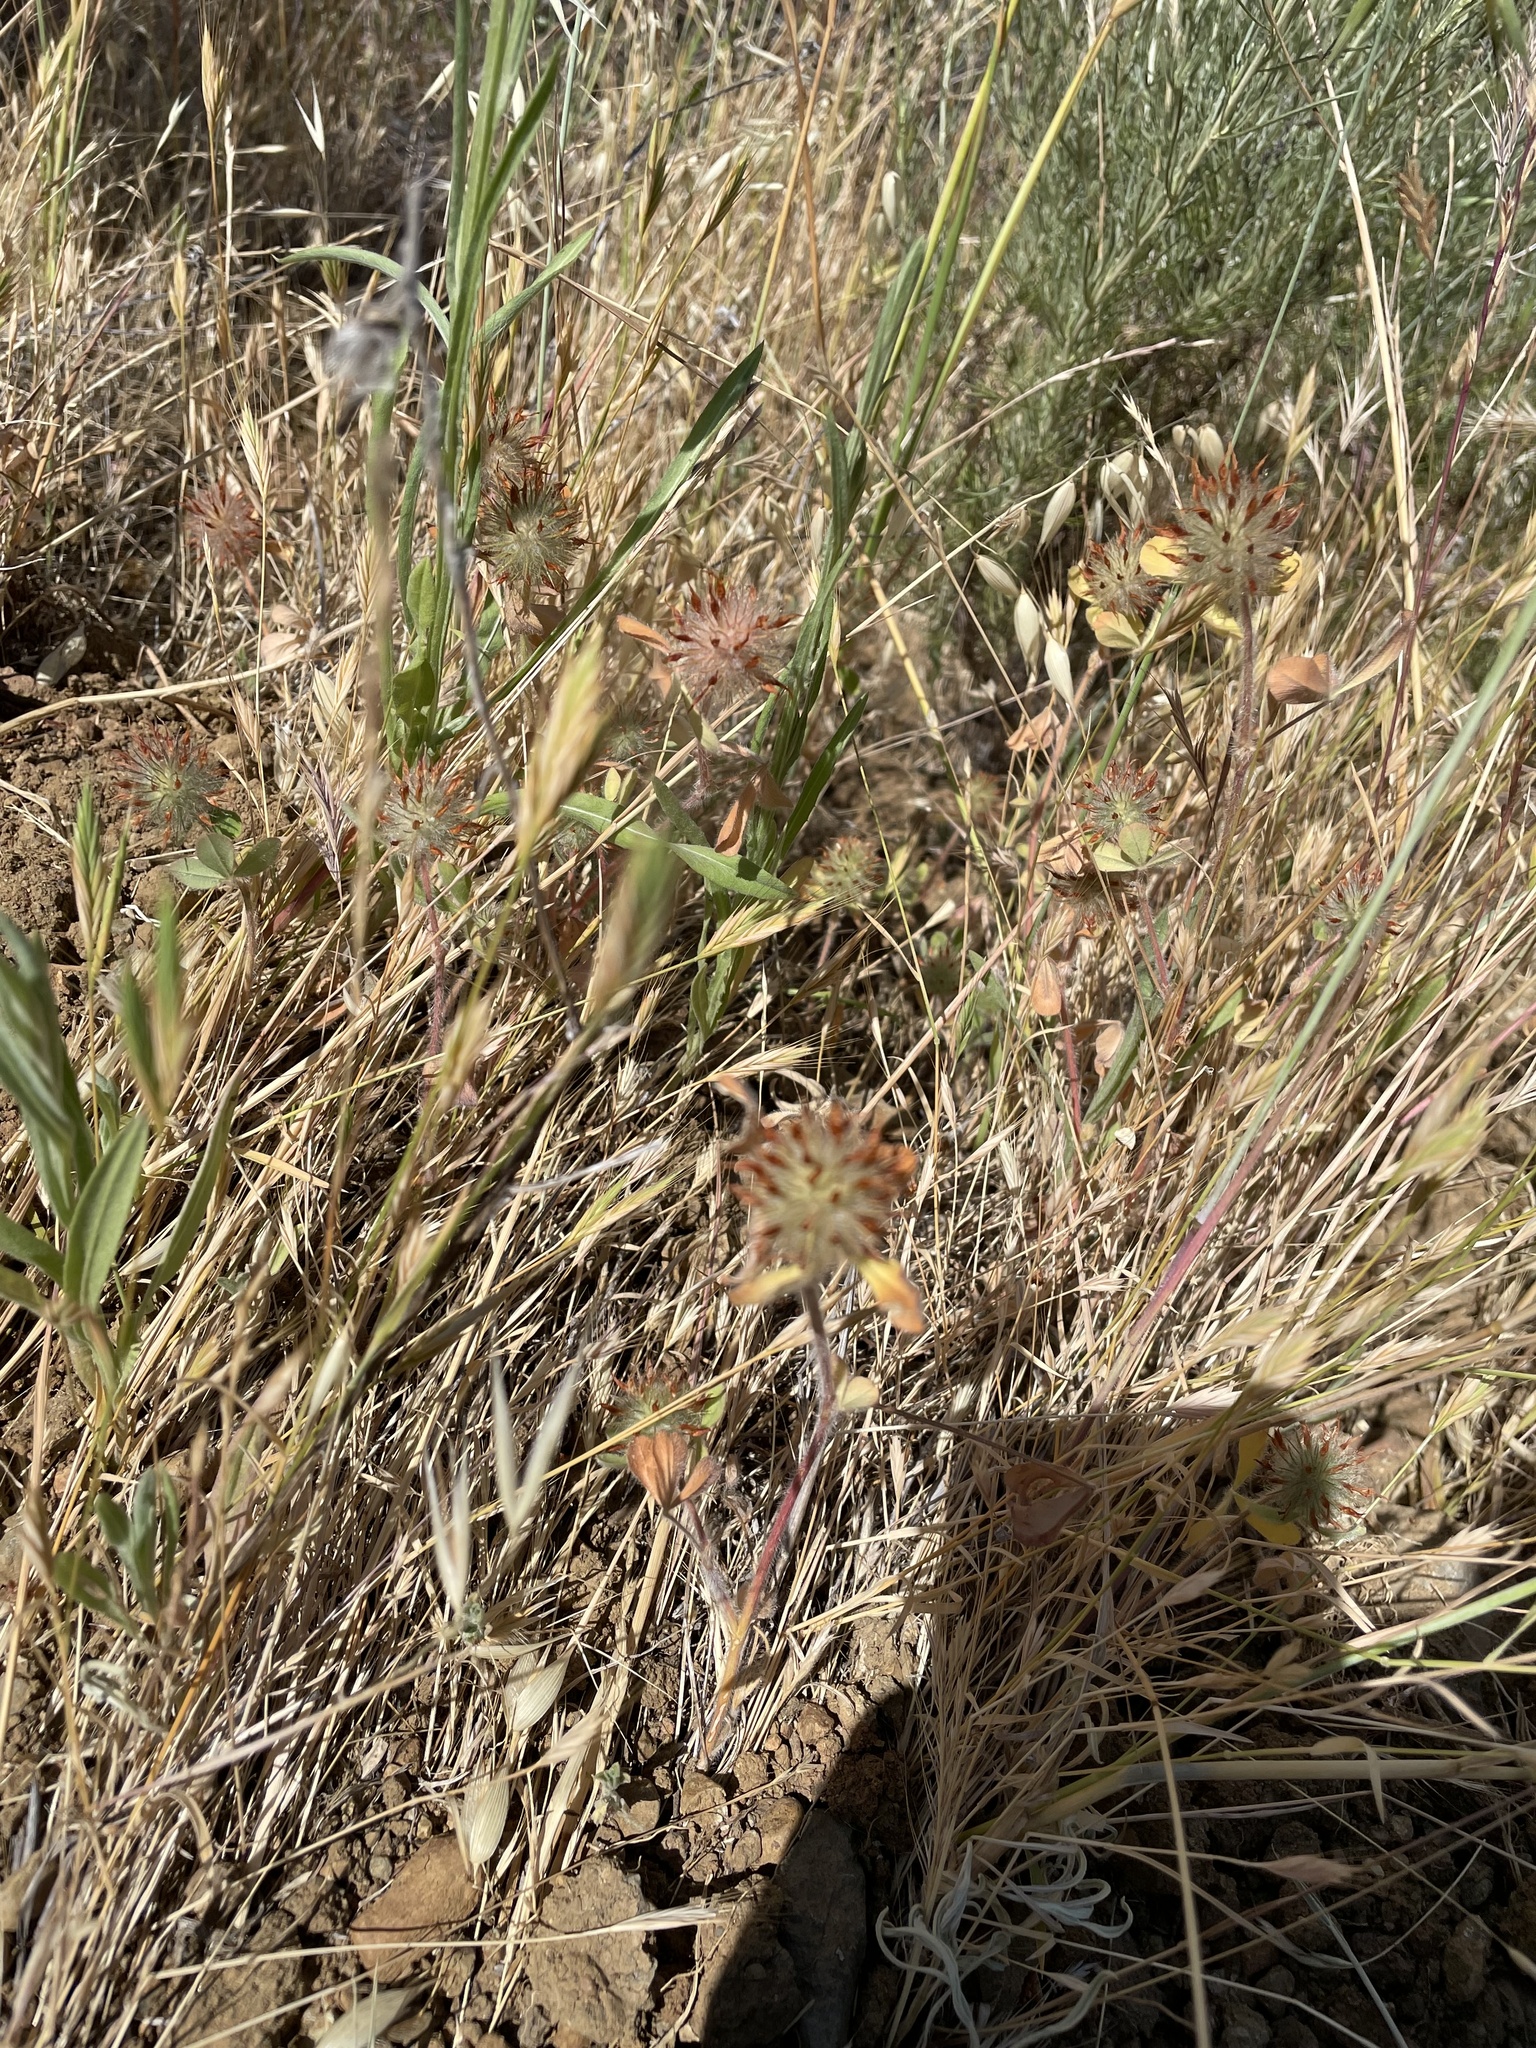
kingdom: Plantae
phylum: Tracheophyta
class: Magnoliopsida
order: Fabales
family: Fabaceae
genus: Trifolium
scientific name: Trifolium hirtum
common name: Rose clover
